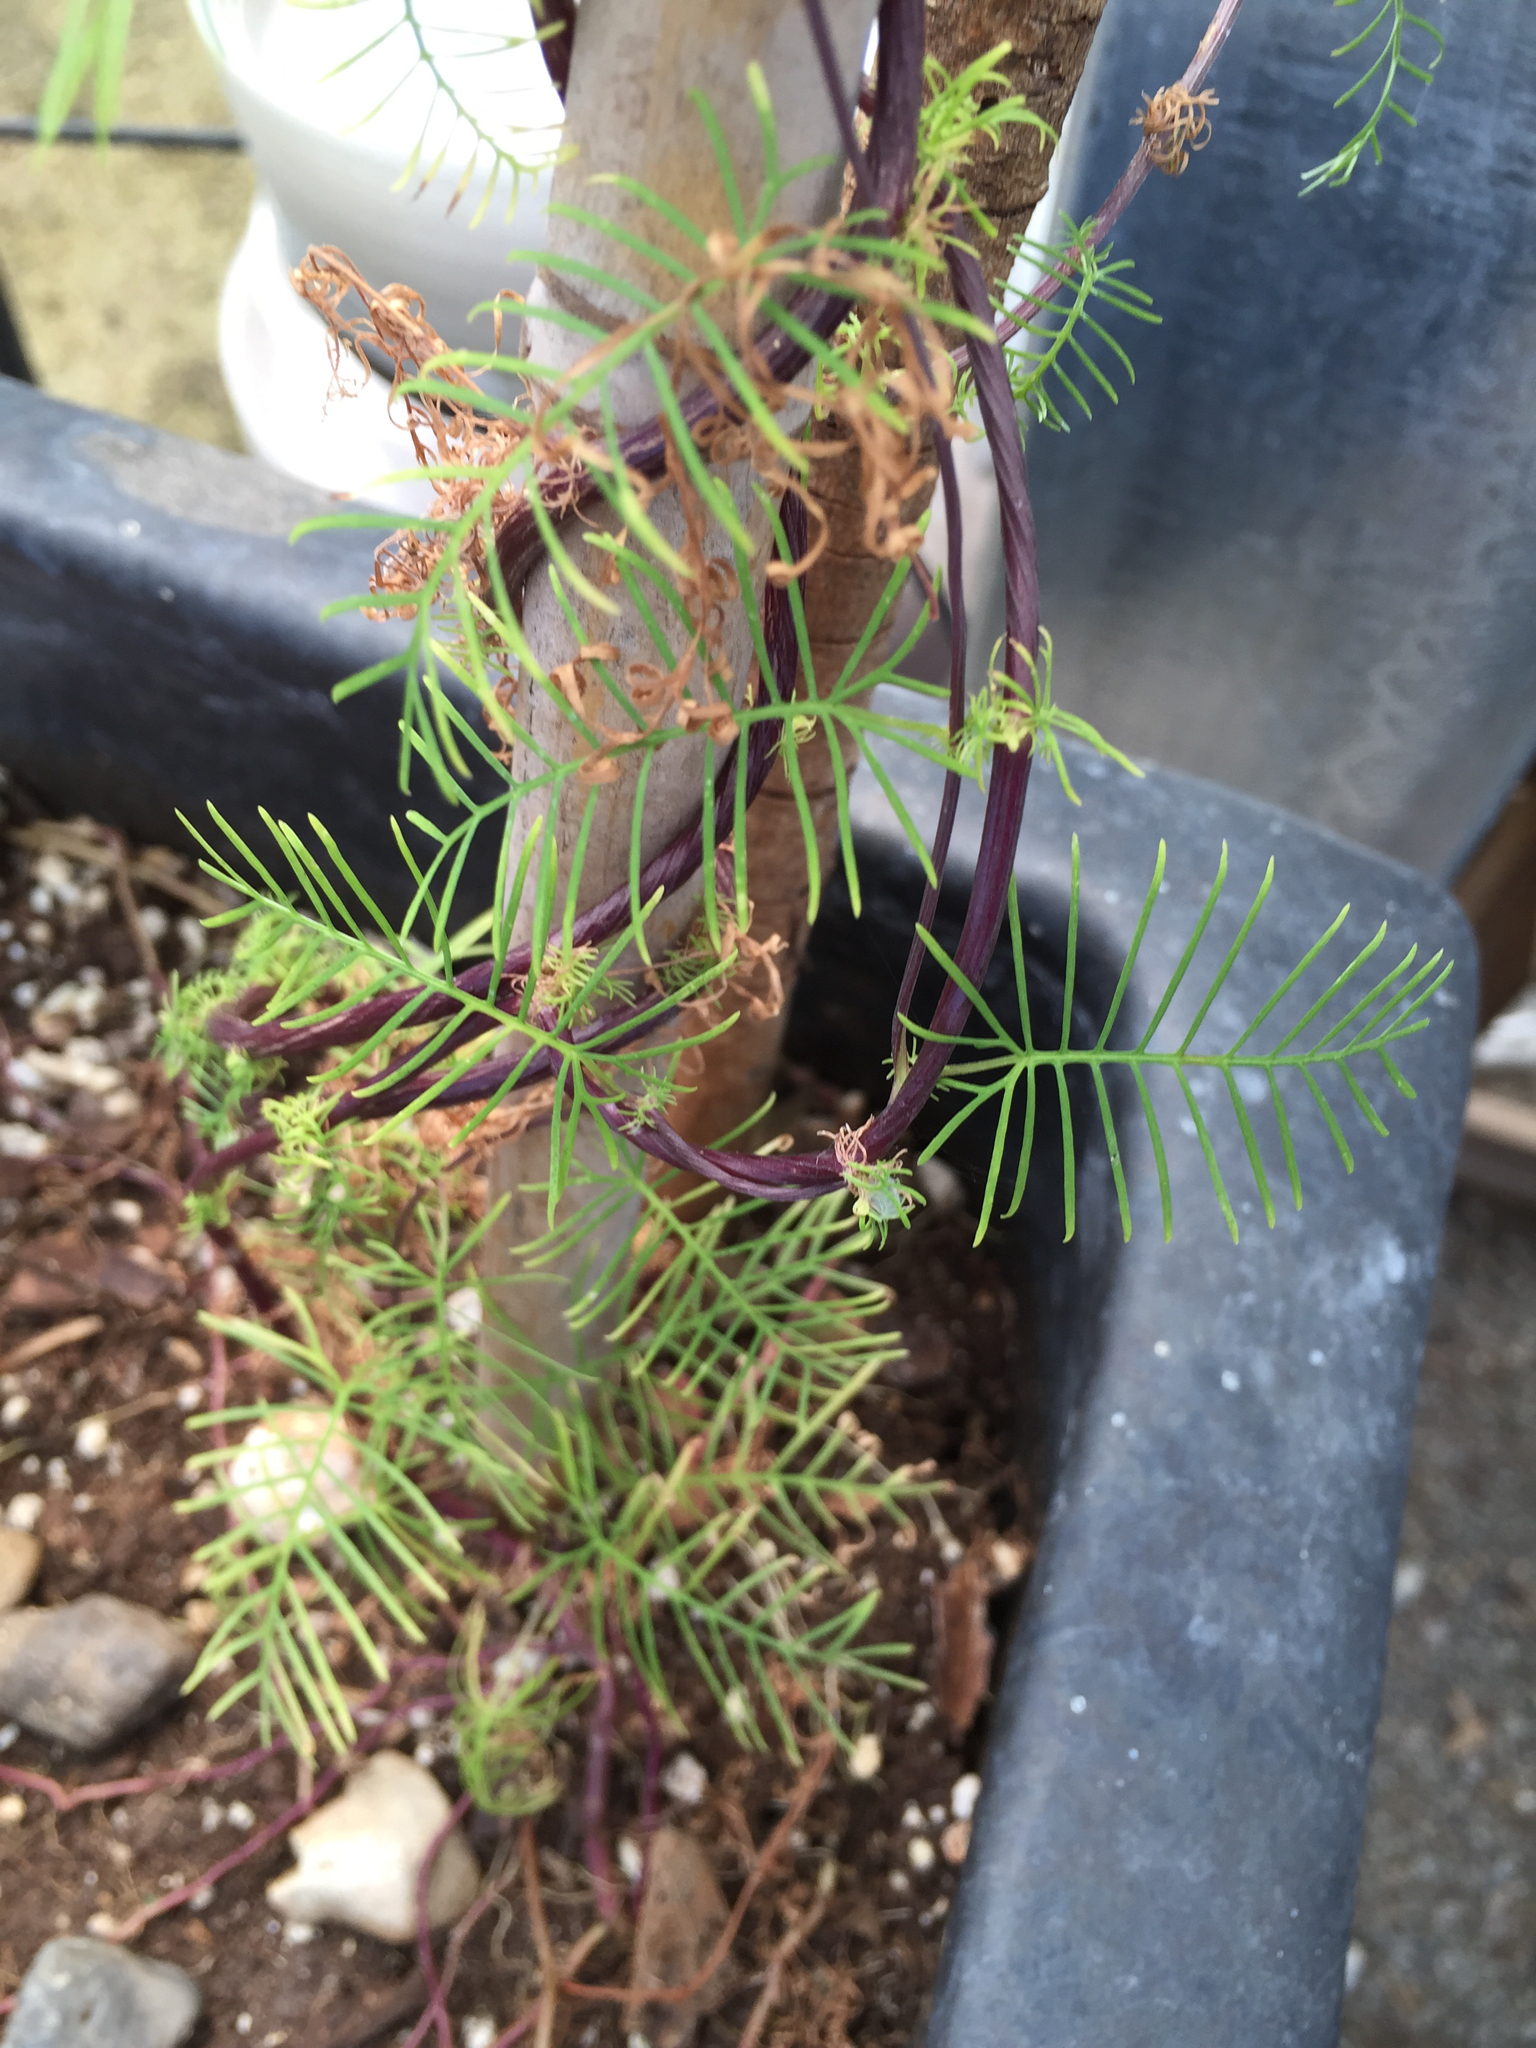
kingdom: Plantae
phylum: Tracheophyta
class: Magnoliopsida
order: Solanales
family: Convolvulaceae
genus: Ipomoea
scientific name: Ipomoea quamoclit
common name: Cypress vine
